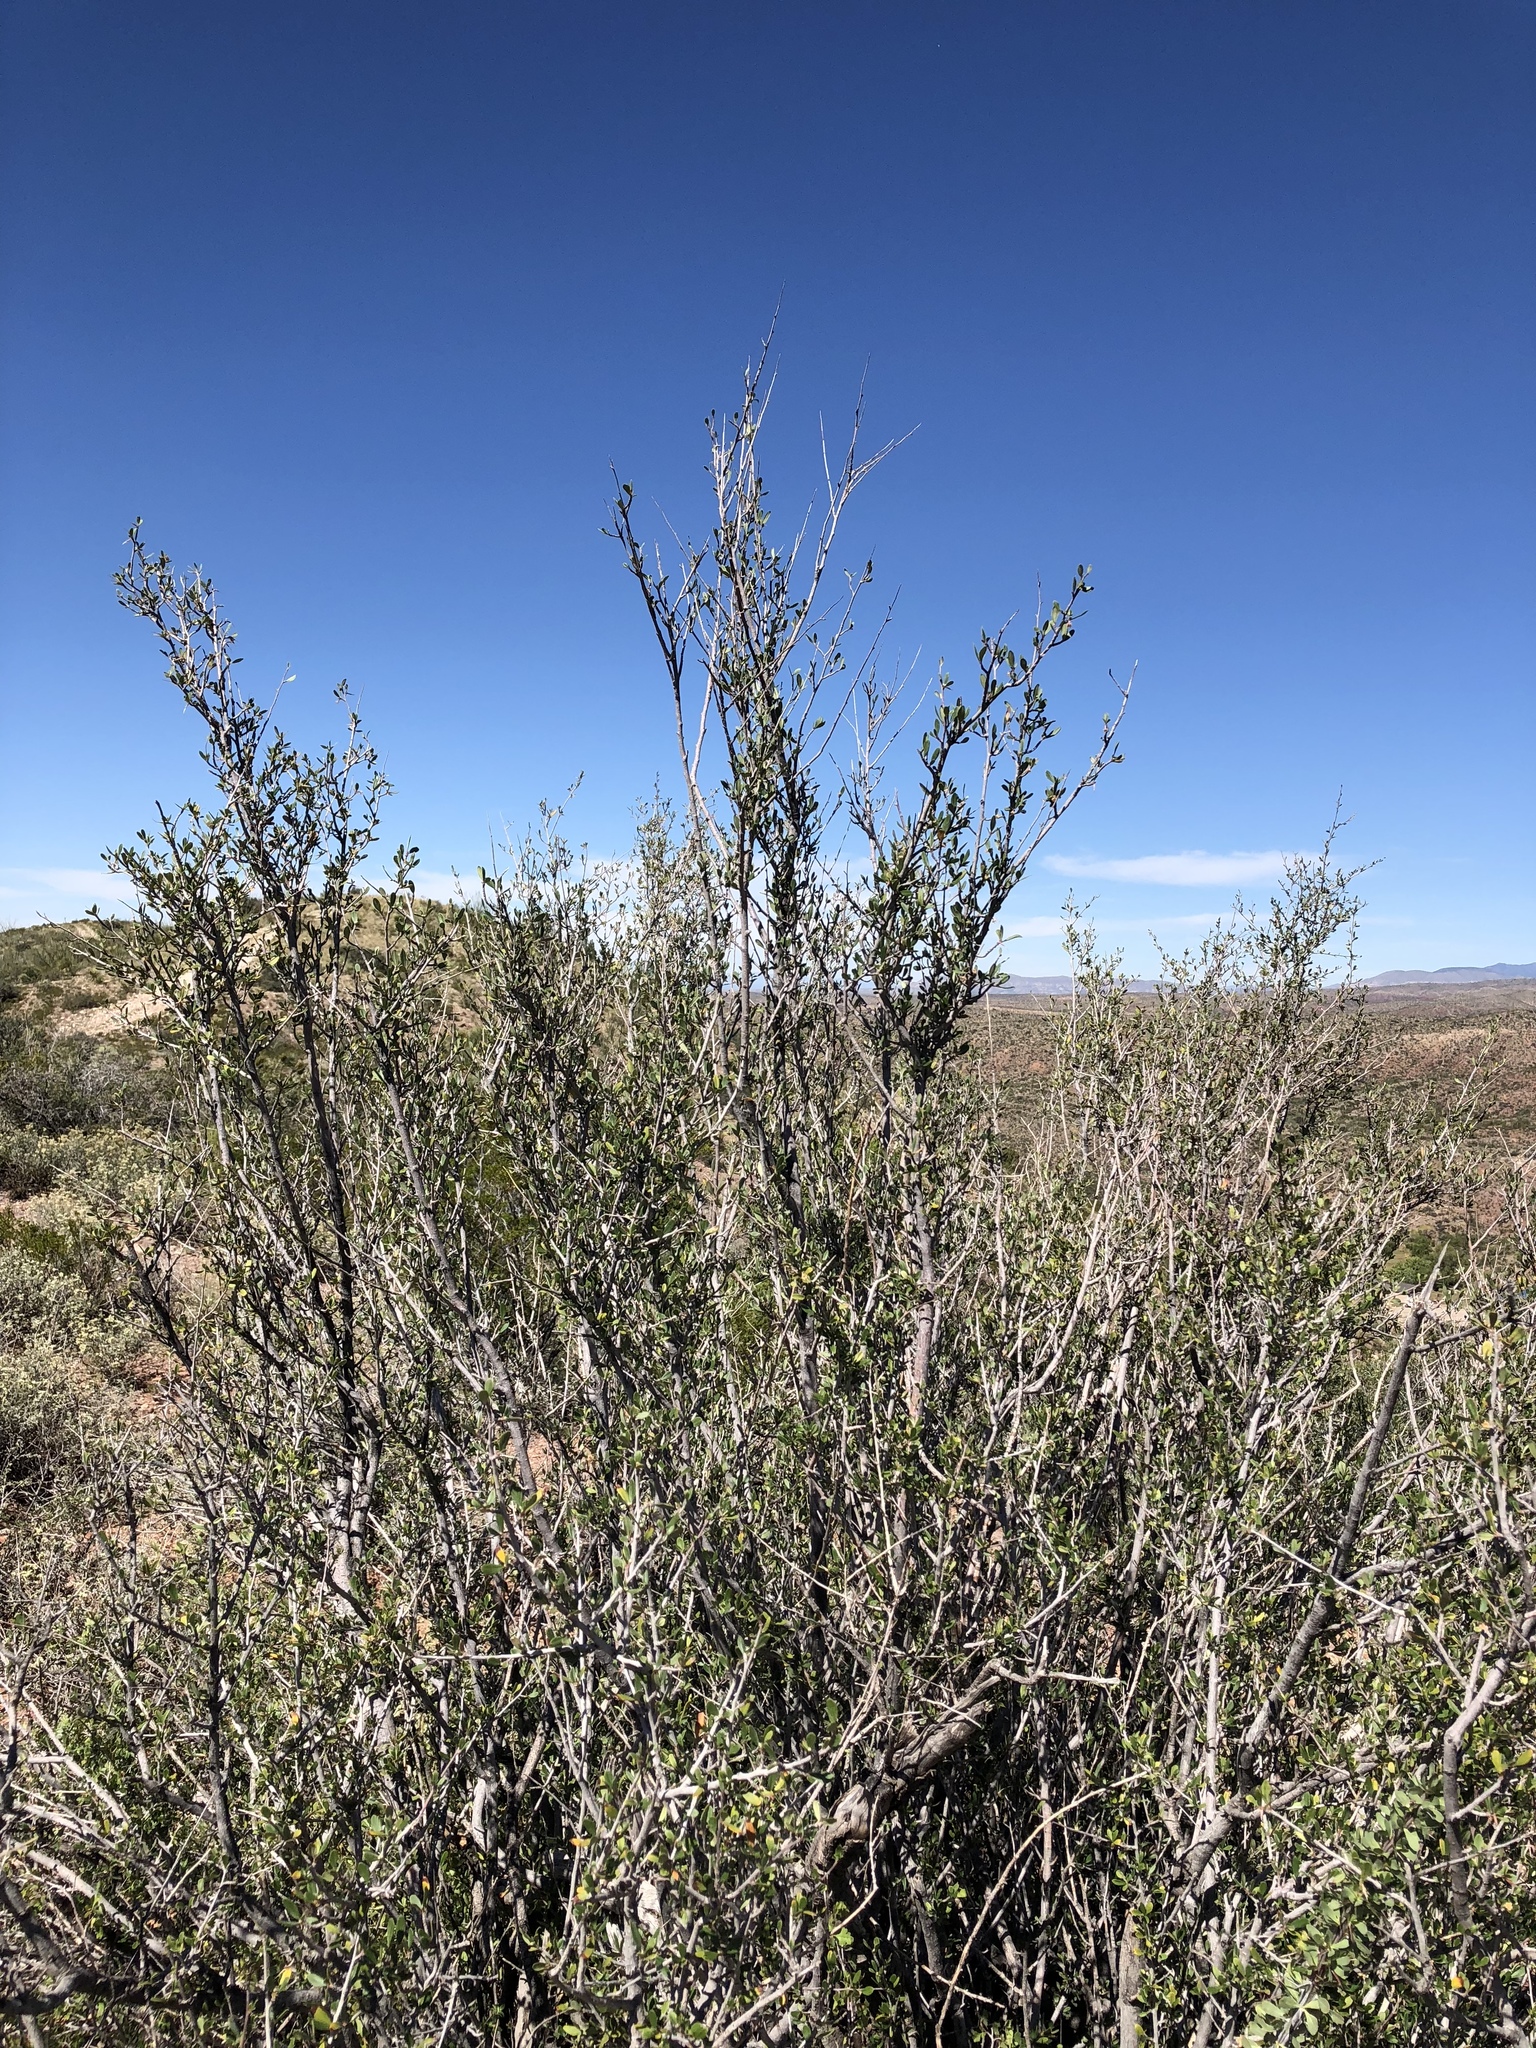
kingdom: Plantae
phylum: Tracheophyta
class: Magnoliopsida
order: Rosales
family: Rosaceae
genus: Cercocarpus
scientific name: Cercocarpus breviflorus
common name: Wright's mountain-mahogany
